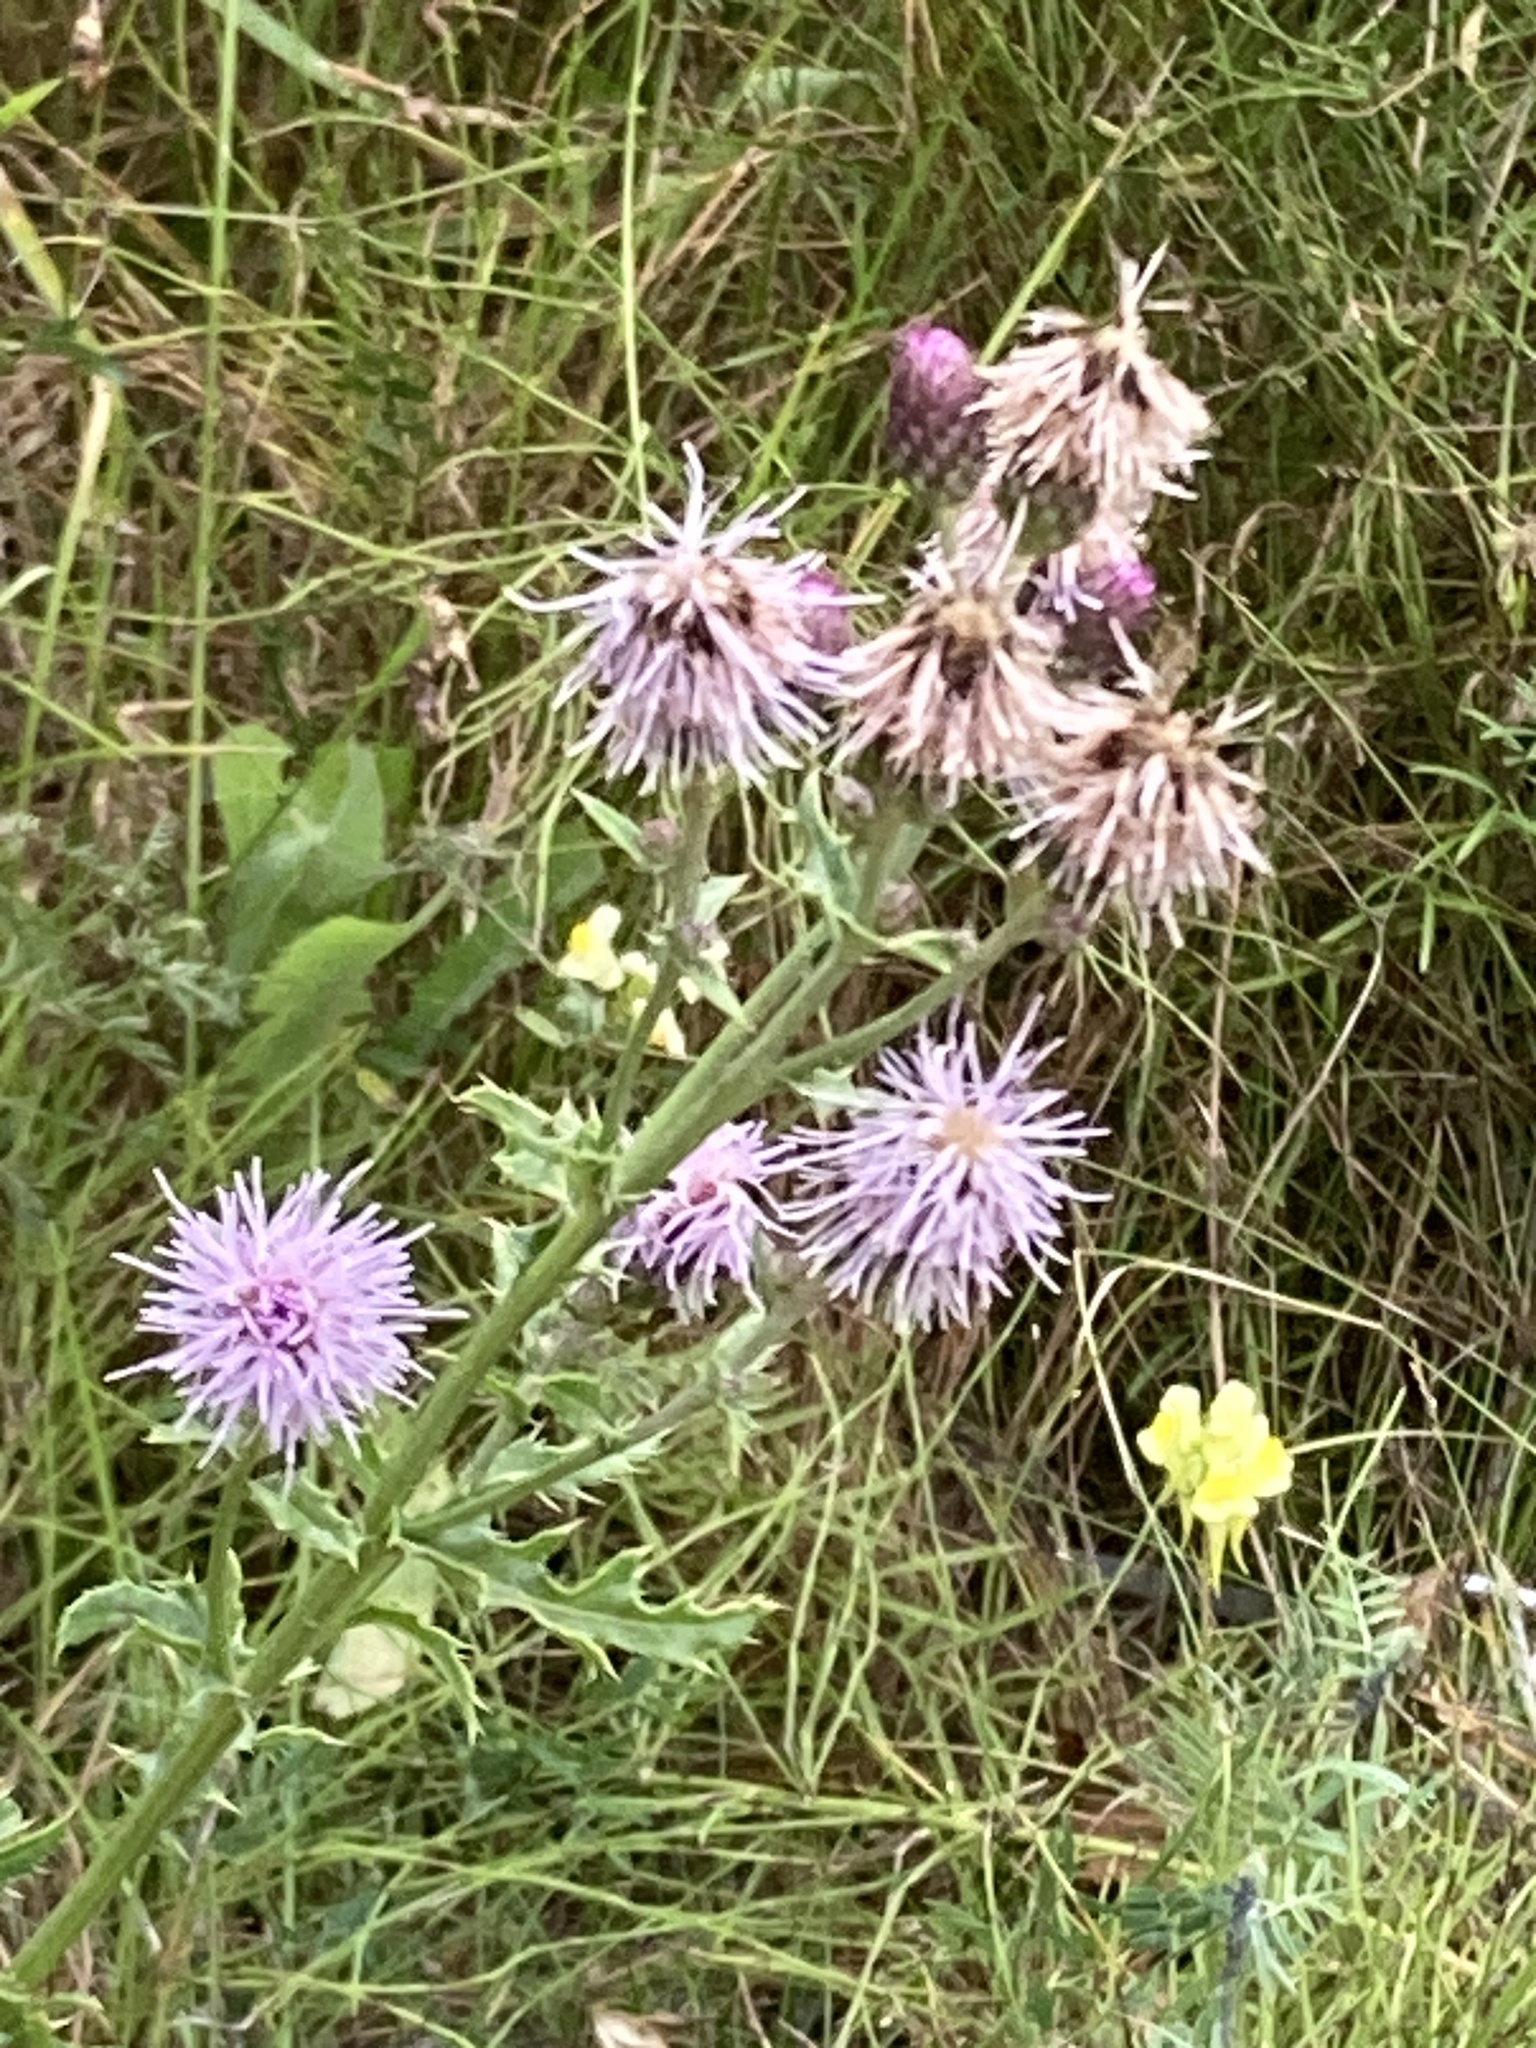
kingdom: Plantae
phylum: Tracheophyta
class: Magnoliopsida
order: Asterales
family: Asteraceae
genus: Cirsium
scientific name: Cirsium arvense
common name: Creeping thistle
